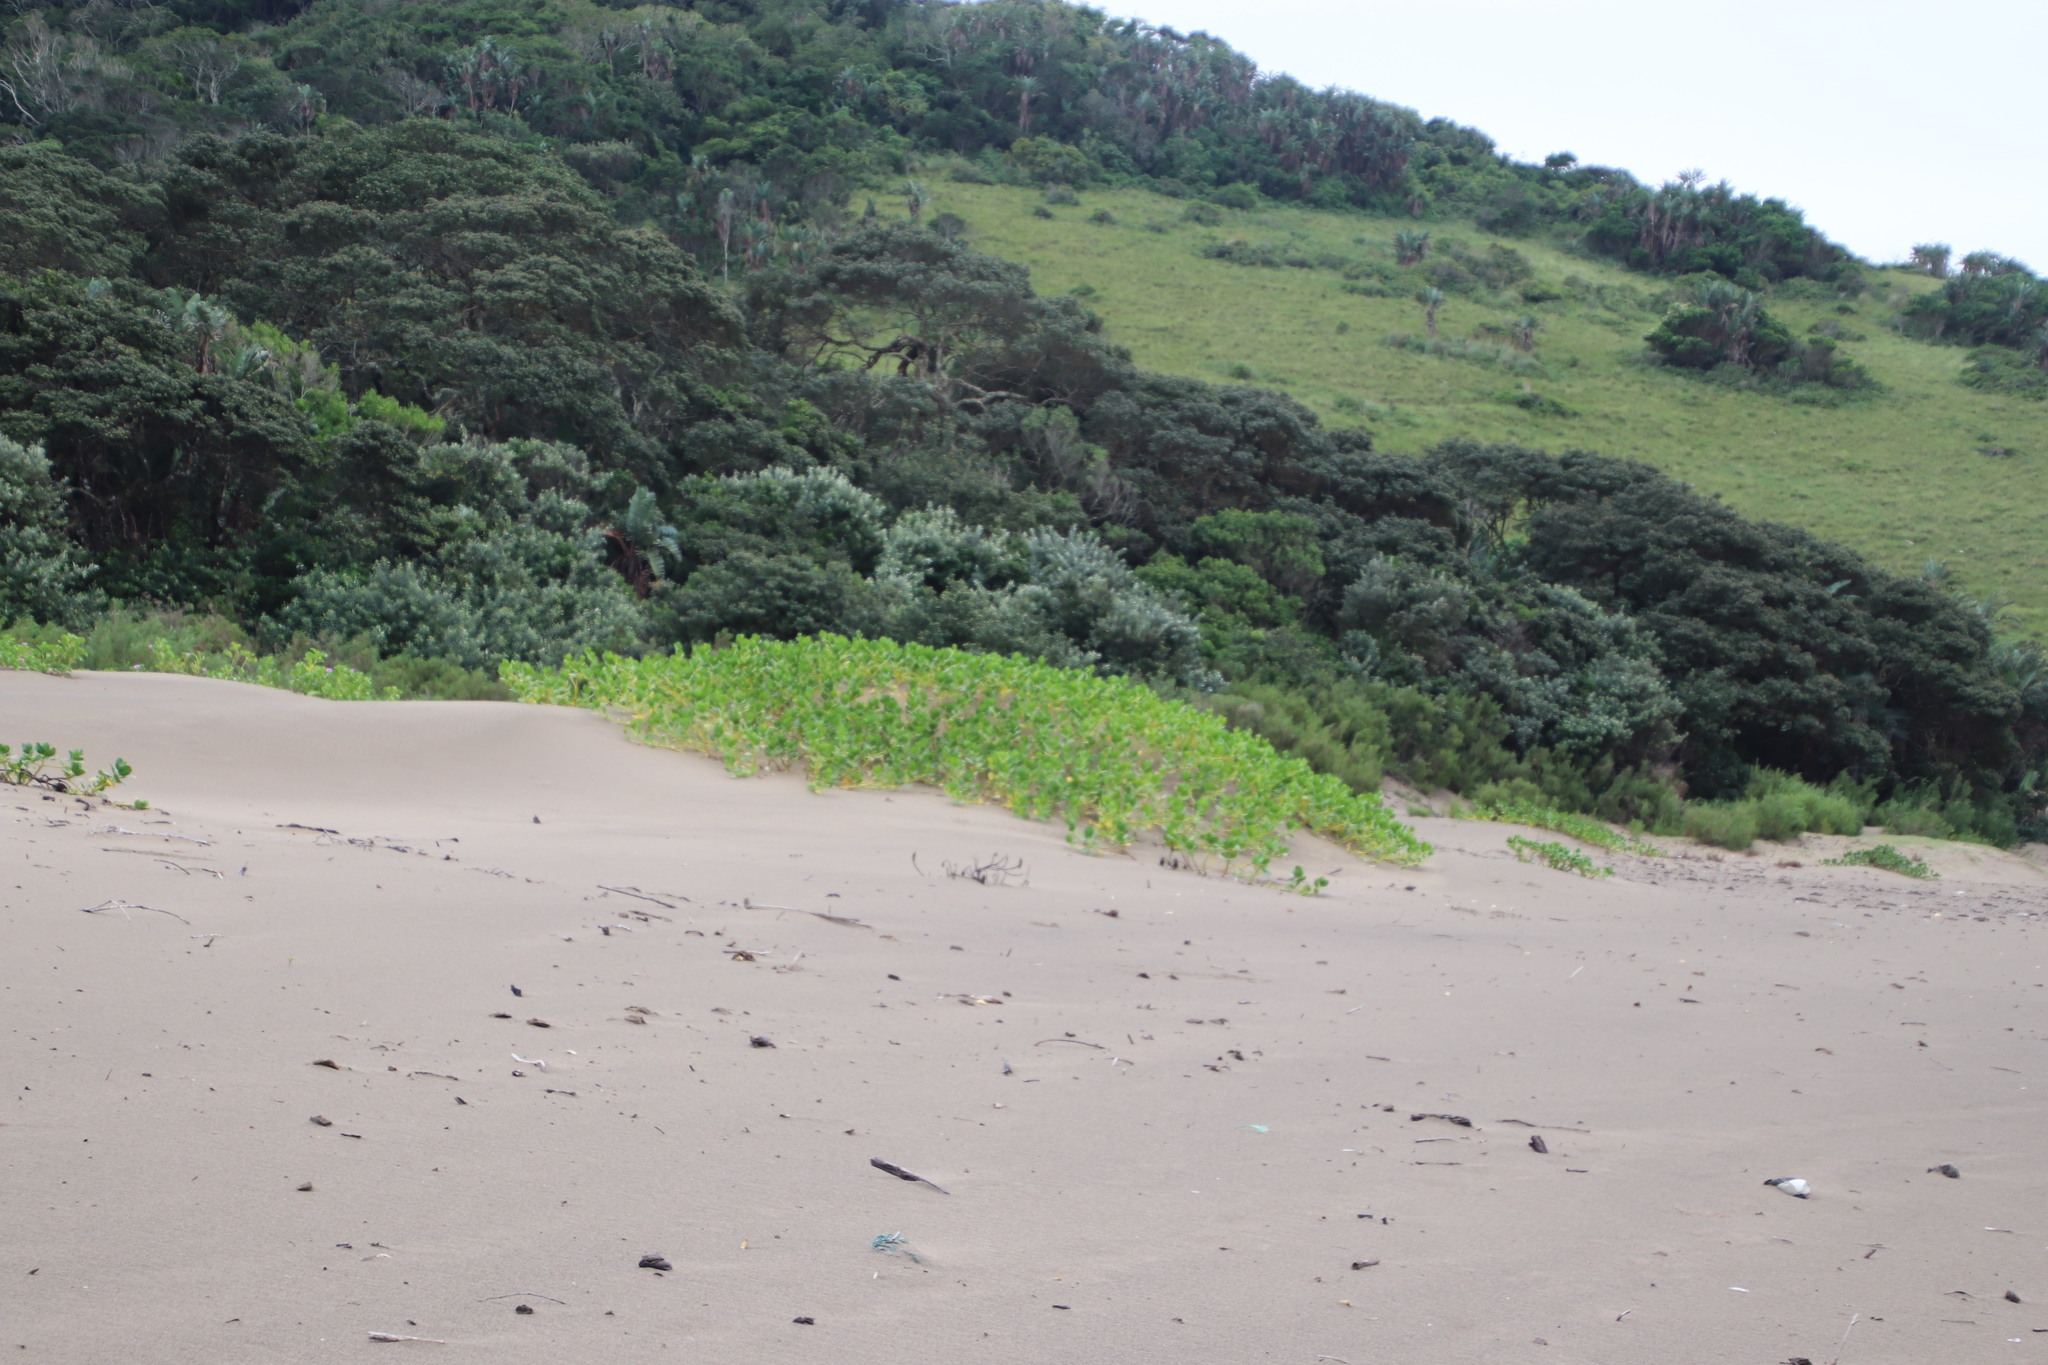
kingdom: Plantae
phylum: Tracheophyta
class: Magnoliopsida
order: Asterales
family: Goodeniaceae
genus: Scaevola
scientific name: Scaevola plumieri
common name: Gull feed
